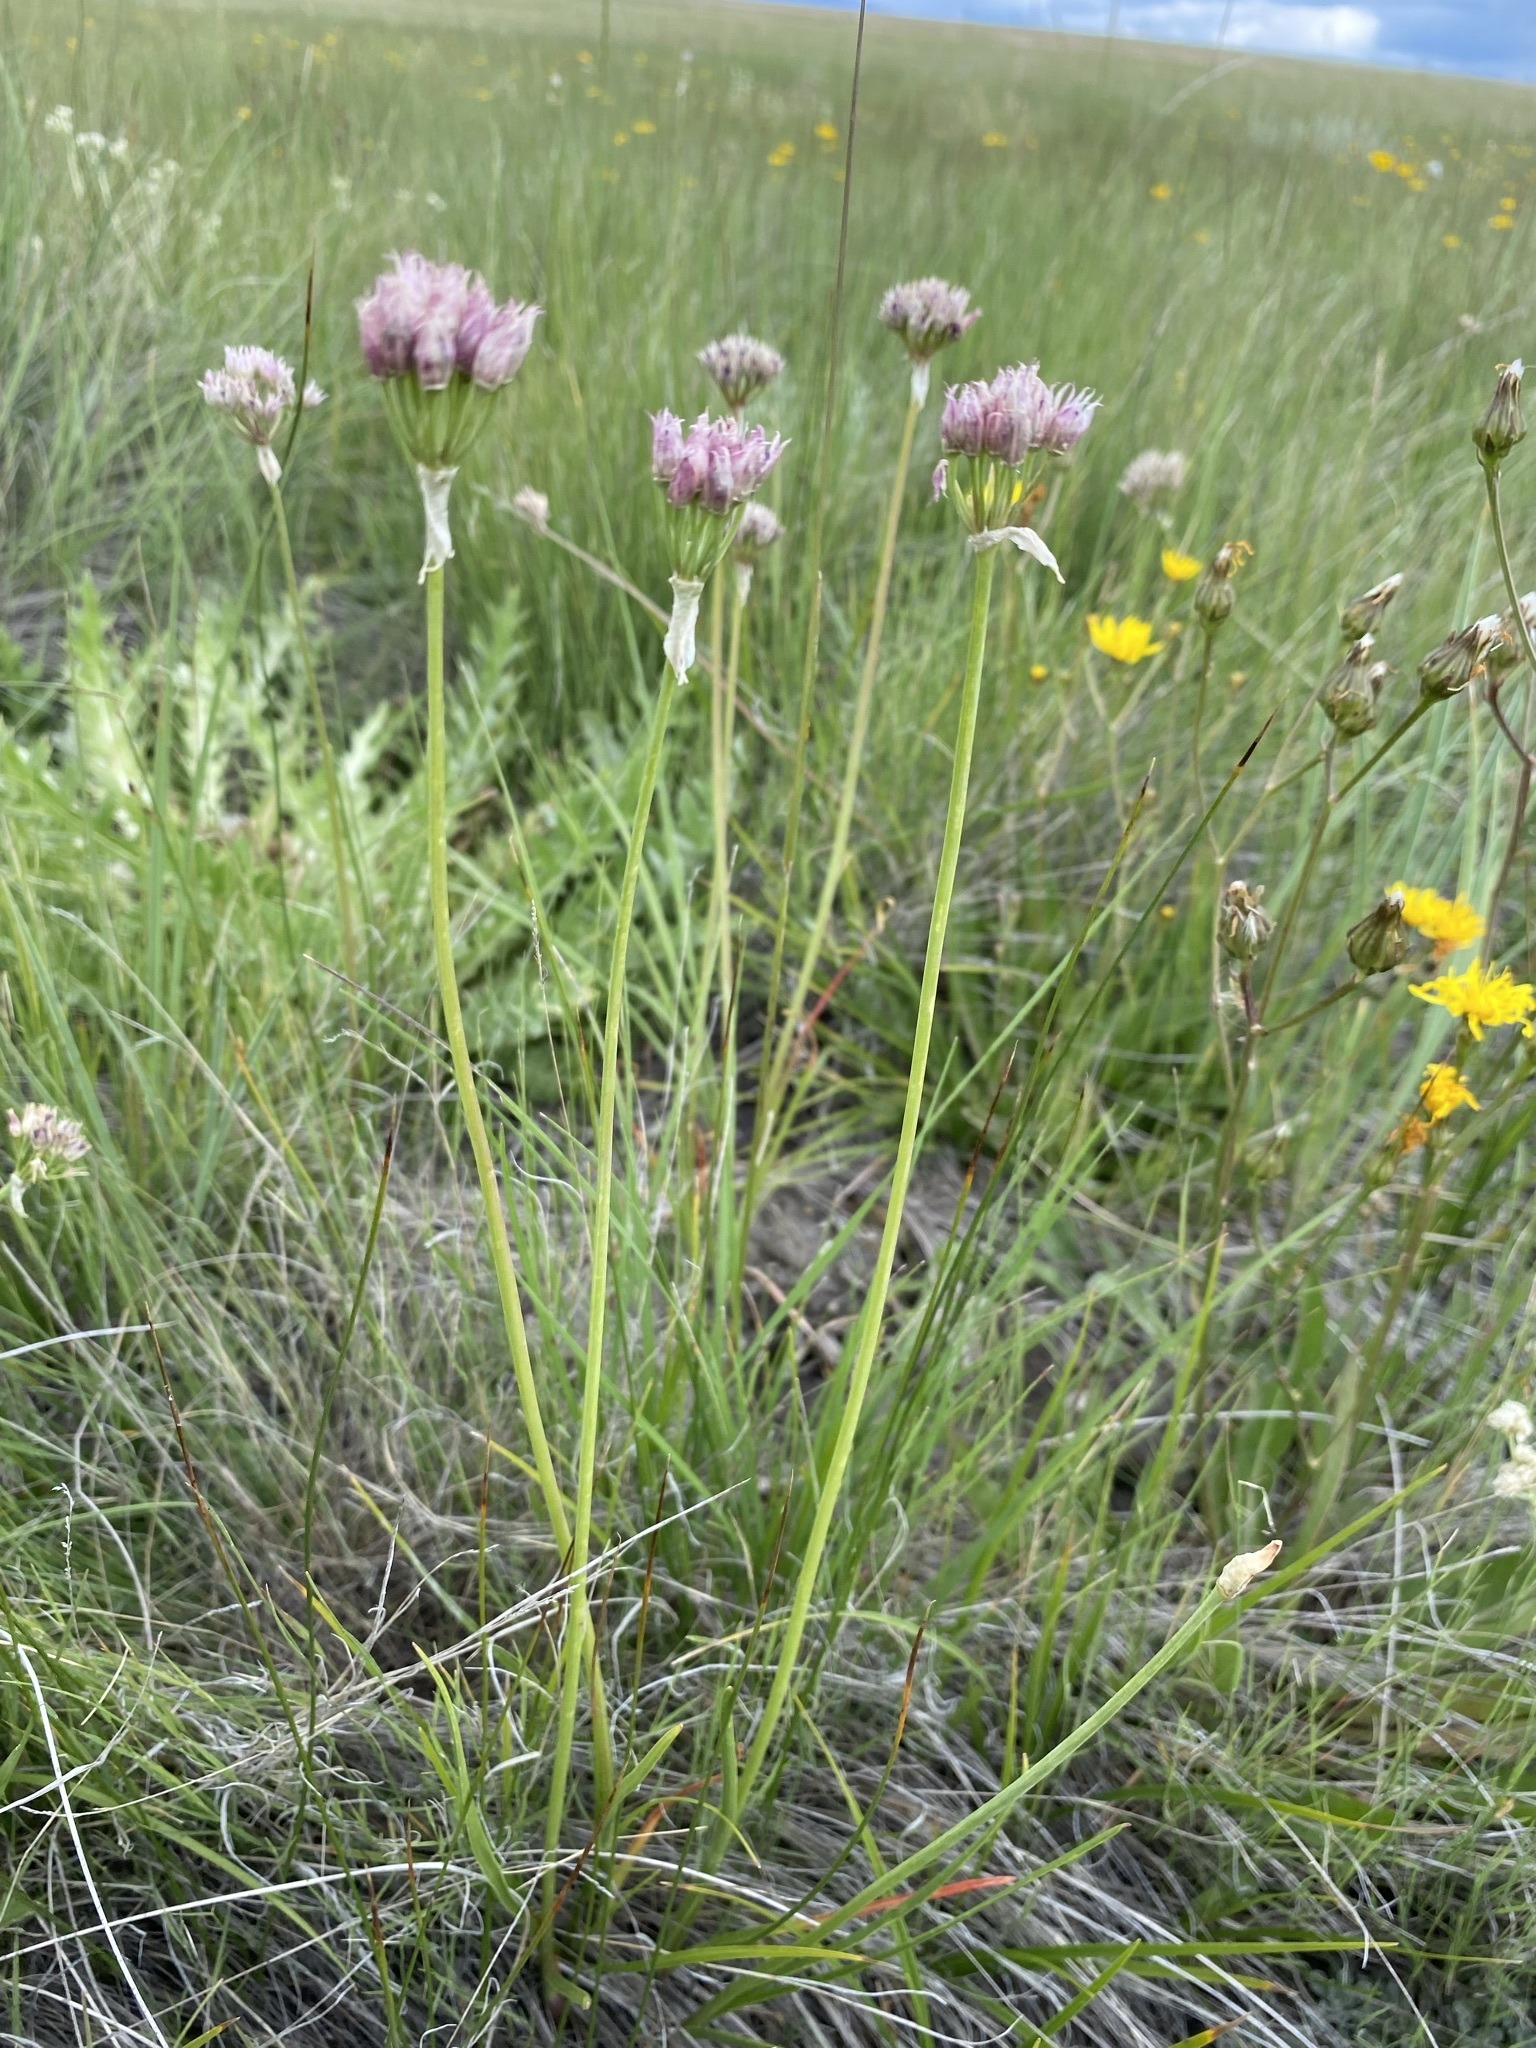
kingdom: Plantae
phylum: Tracheophyta
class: Liliopsida
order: Asparagales
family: Amaryllidaceae
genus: Allium
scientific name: Allium geyeri
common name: Geyer's onion
